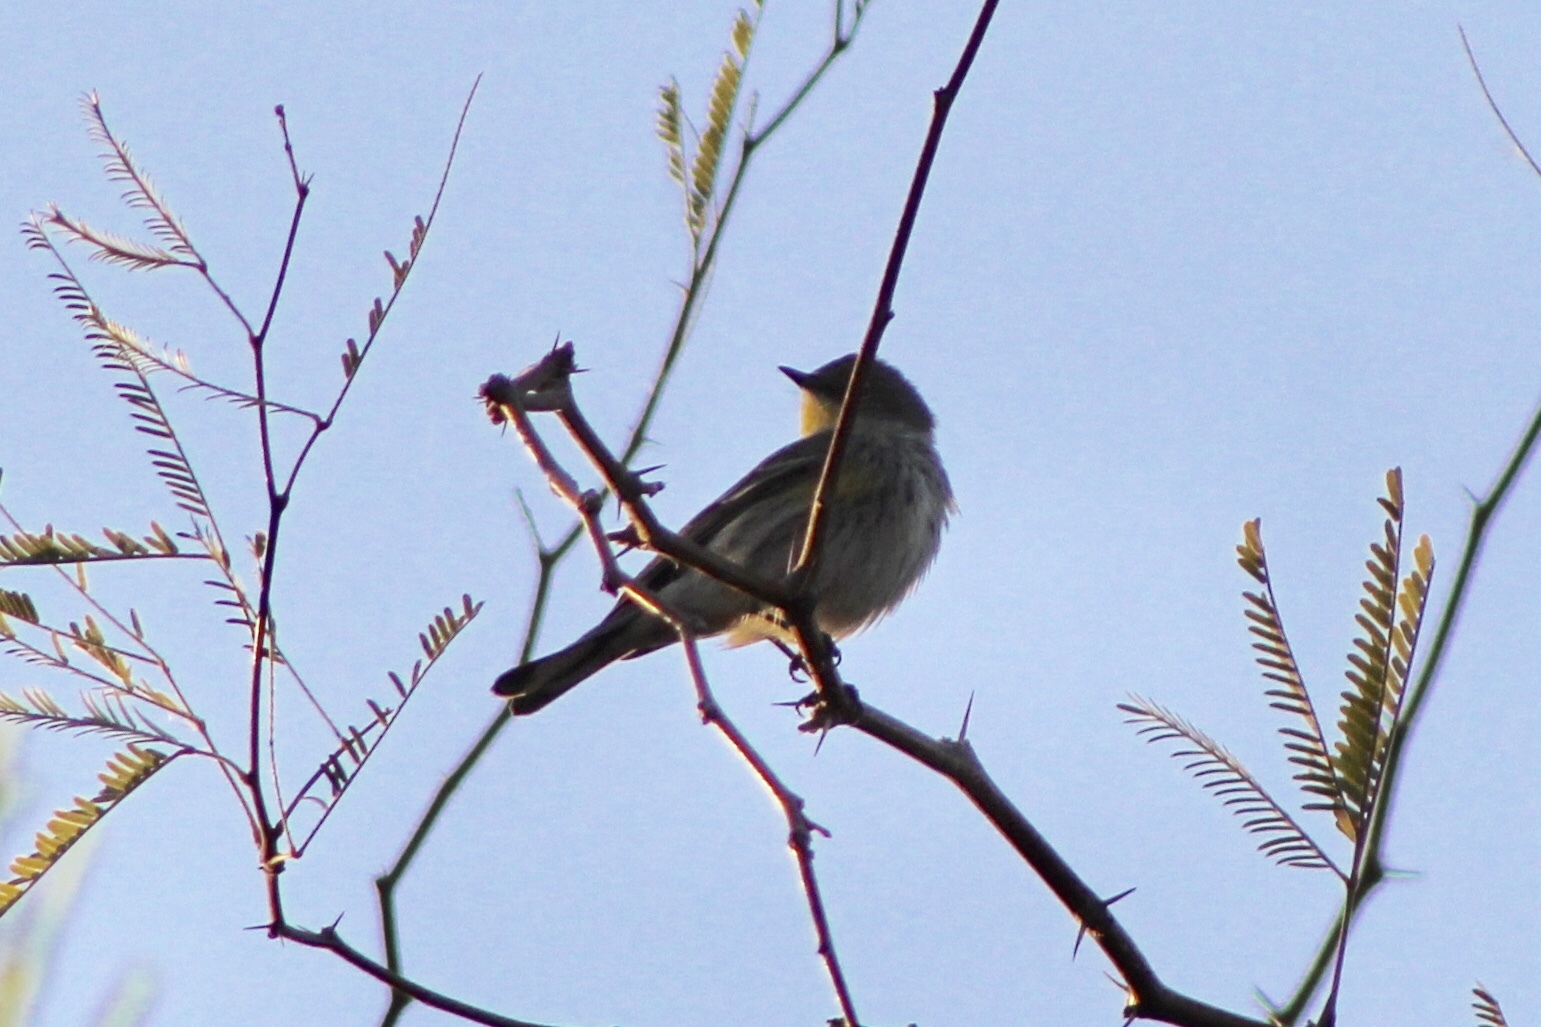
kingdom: Animalia
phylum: Chordata
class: Aves
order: Passeriformes
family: Parulidae
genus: Setophaga
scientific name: Setophaga coronata
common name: Myrtle warbler
